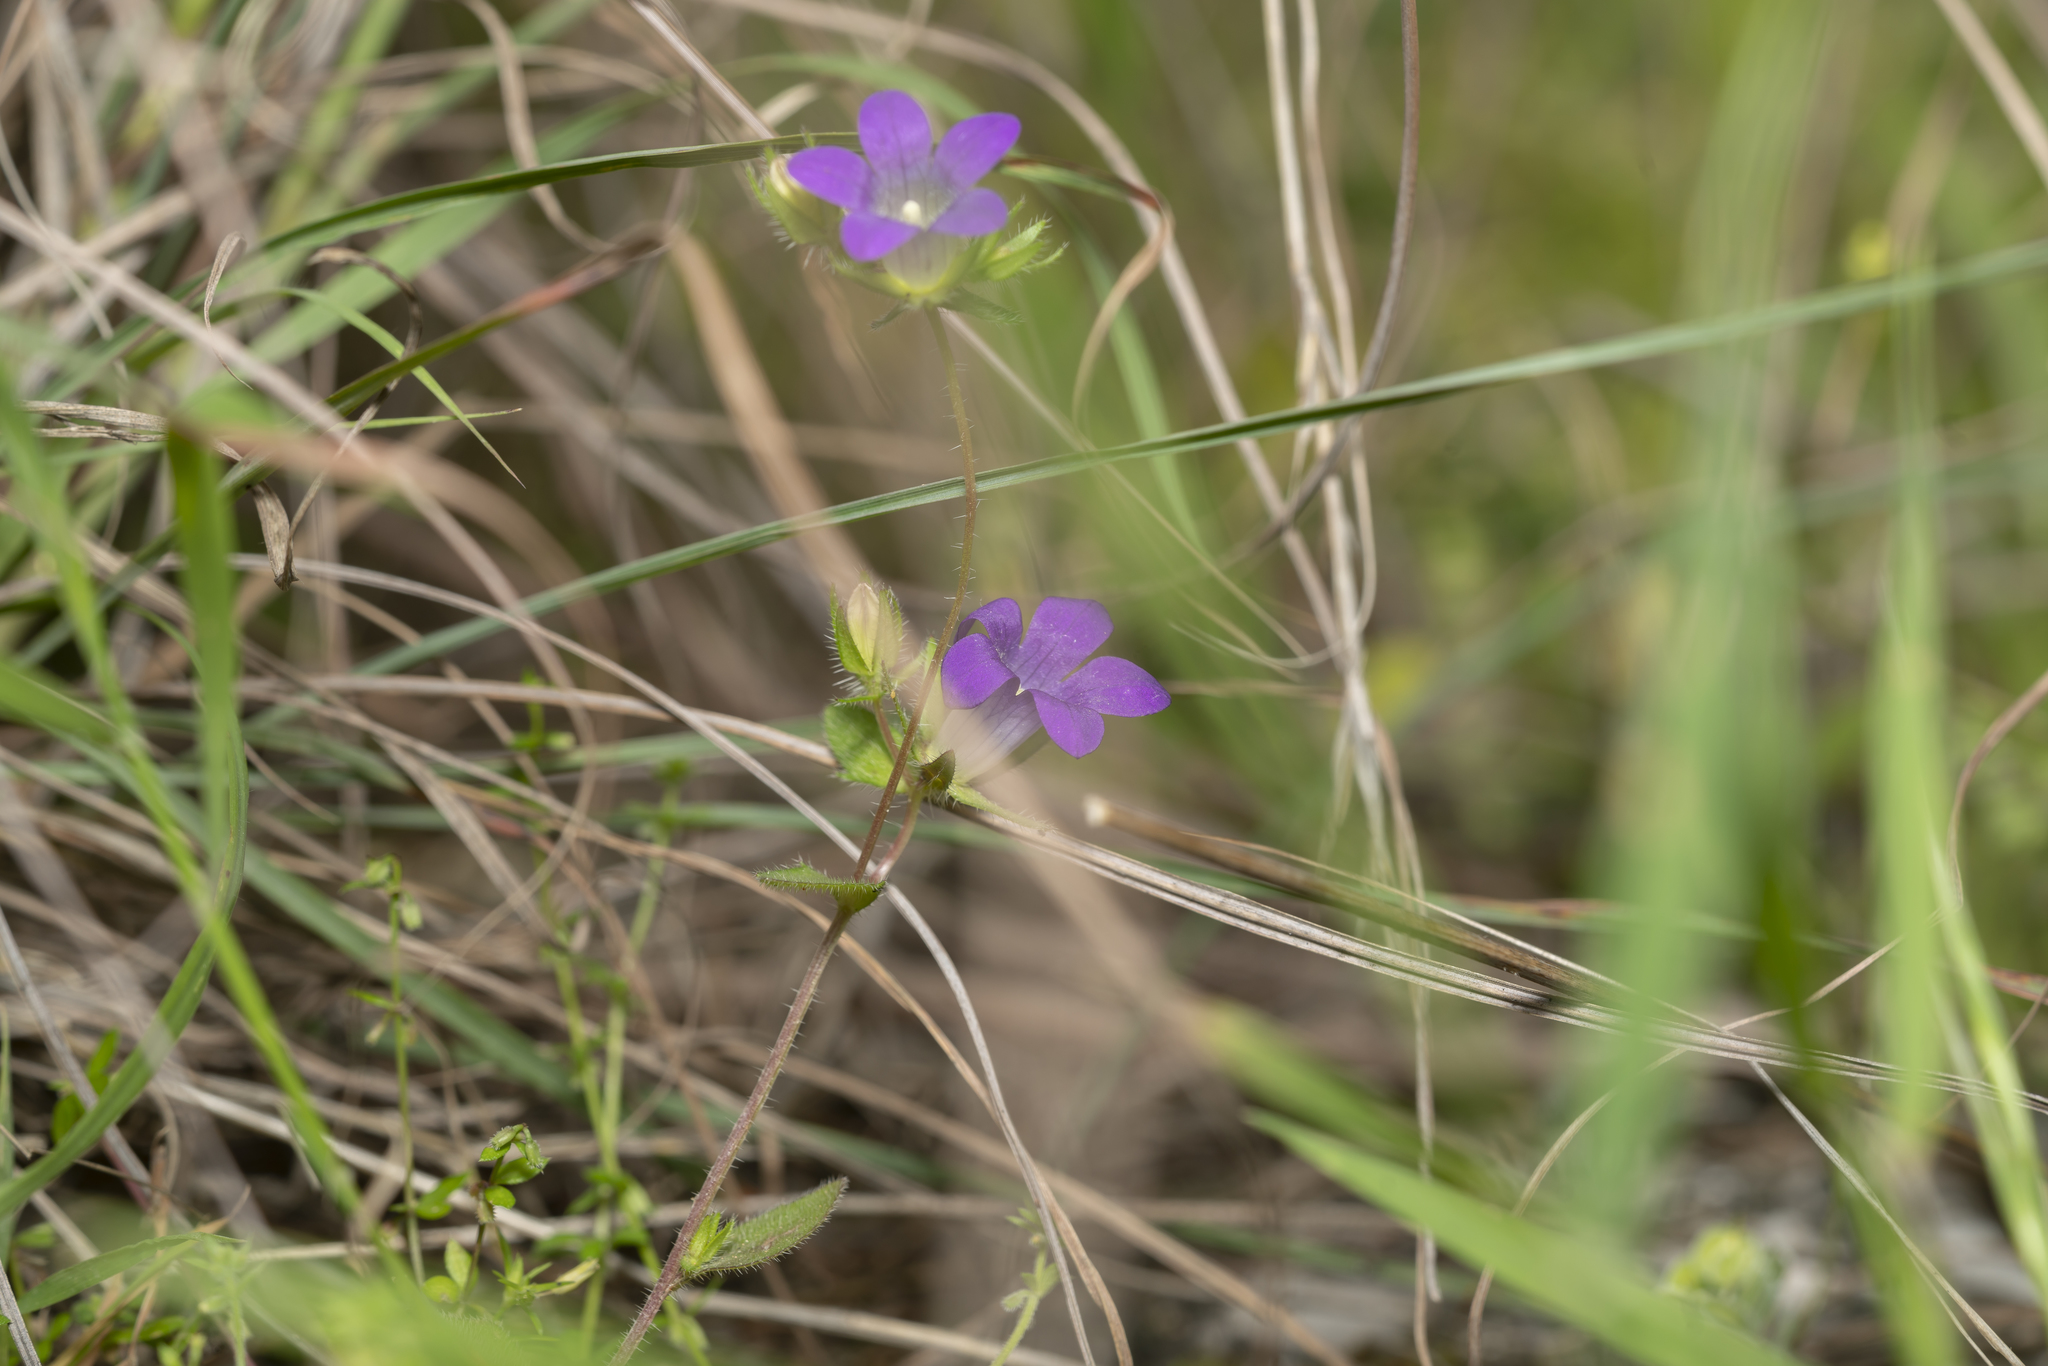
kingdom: Plantae
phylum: Tracheophyta
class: Magnoliopsida
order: Asterales
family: Campanulaceae
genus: Campanula
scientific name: Campanula rhodensis
